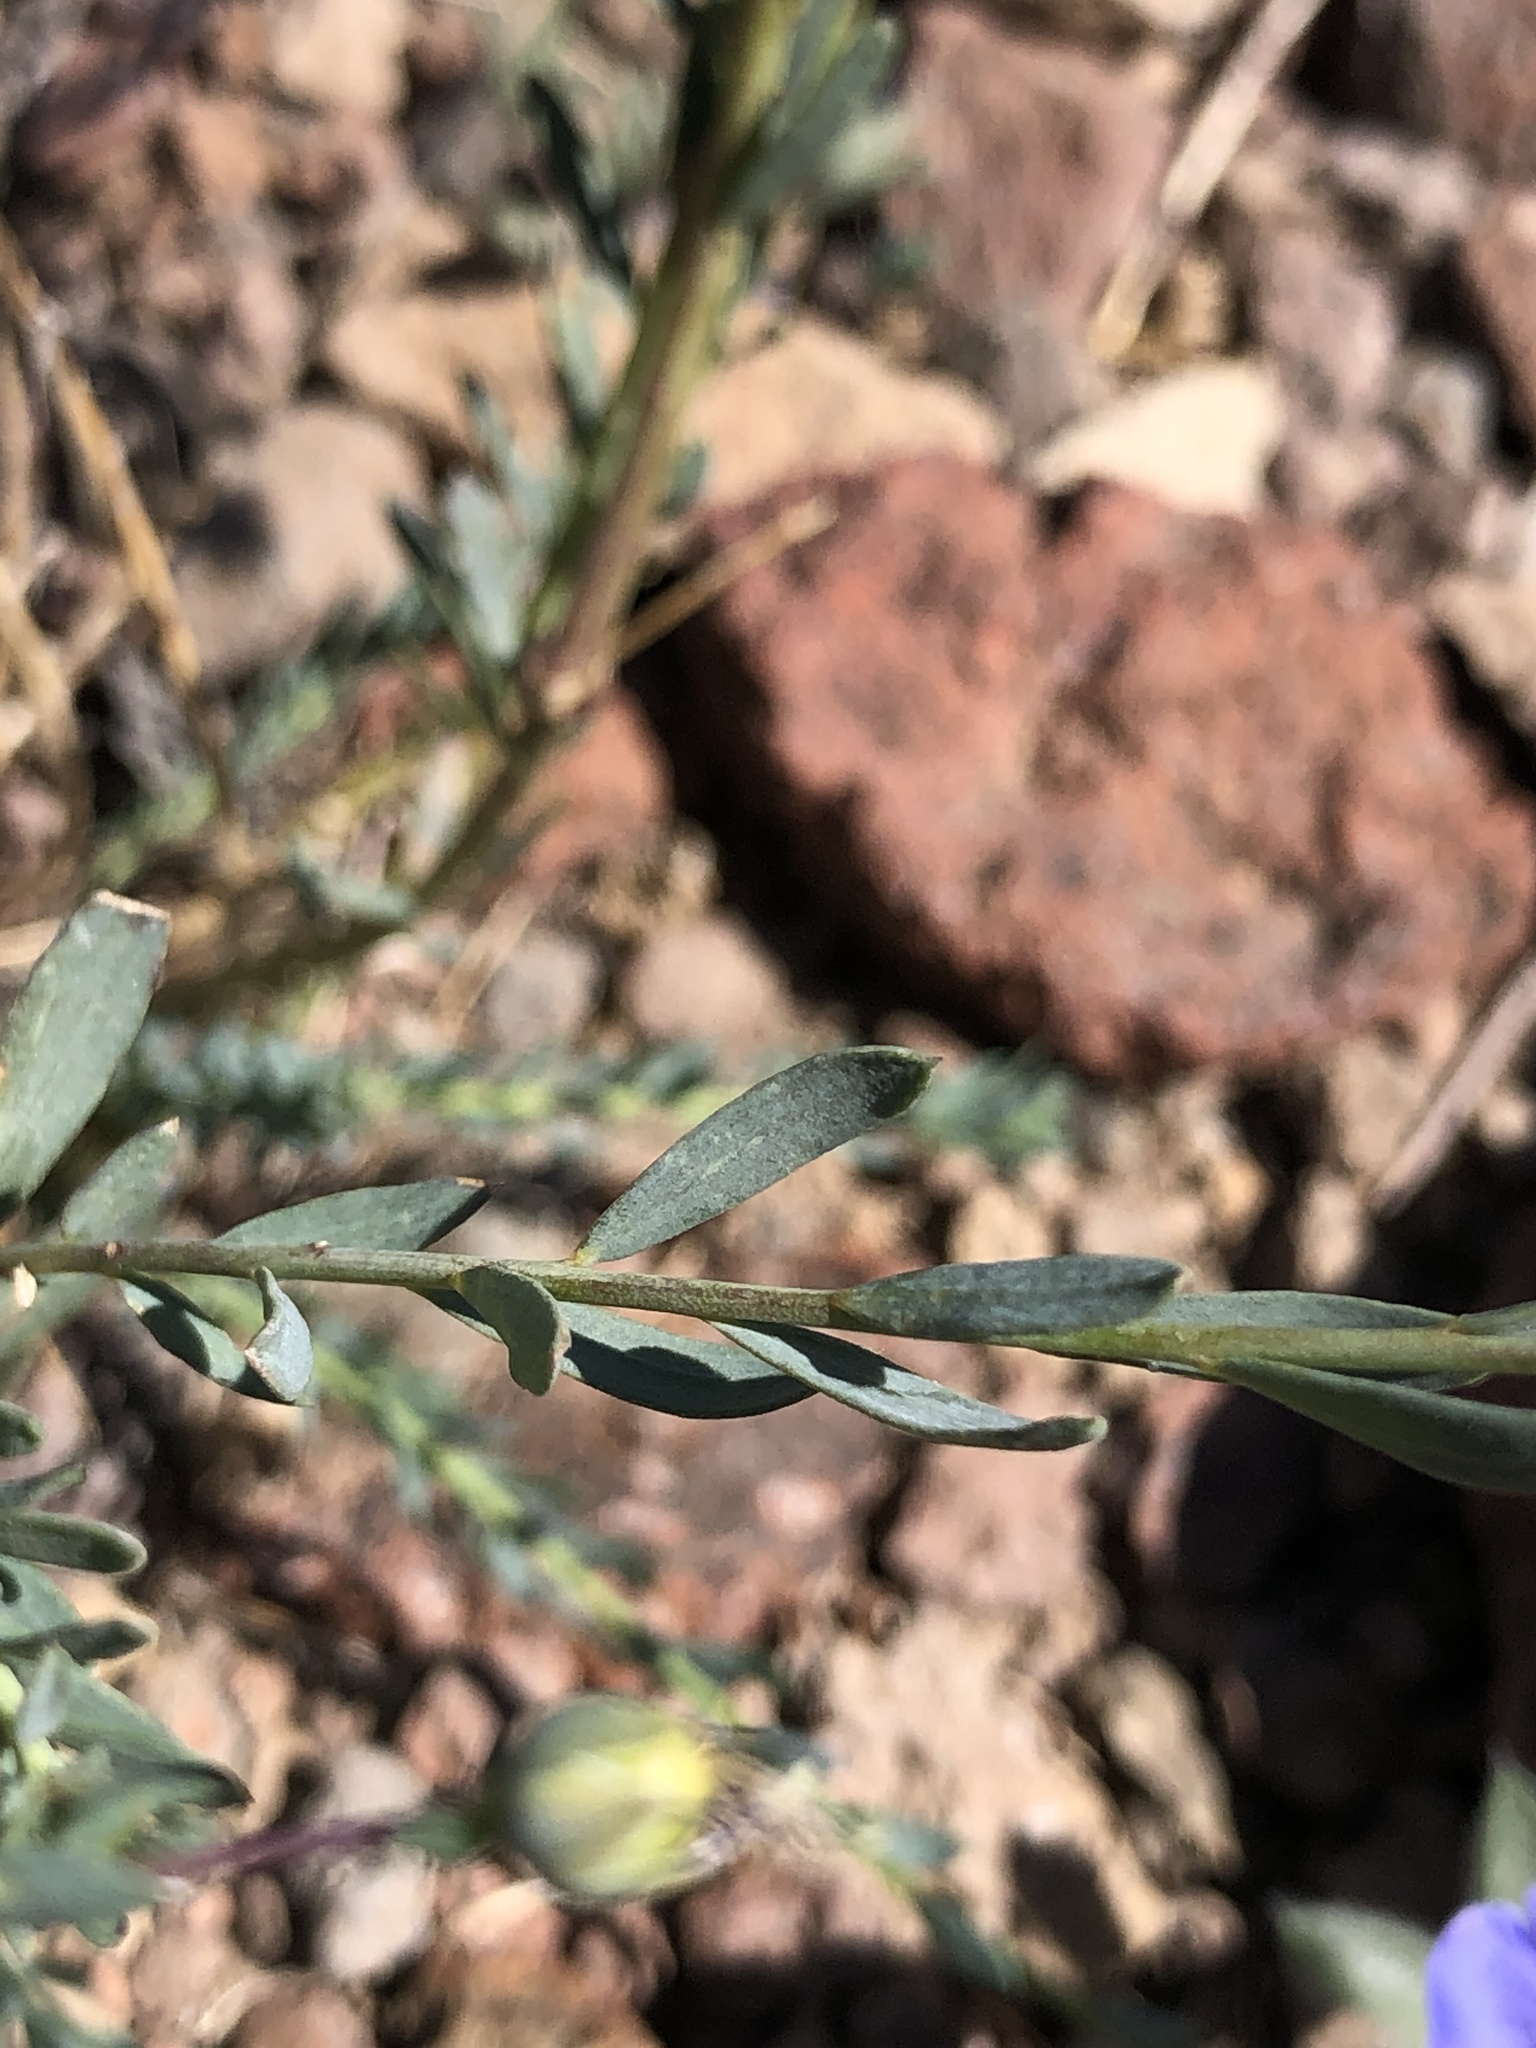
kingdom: Plantae
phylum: Tracheophyta
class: Magnoliopsida
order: Malpighiales
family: Linaceae
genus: Linum
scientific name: Linum lewisii
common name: Prairie flax
